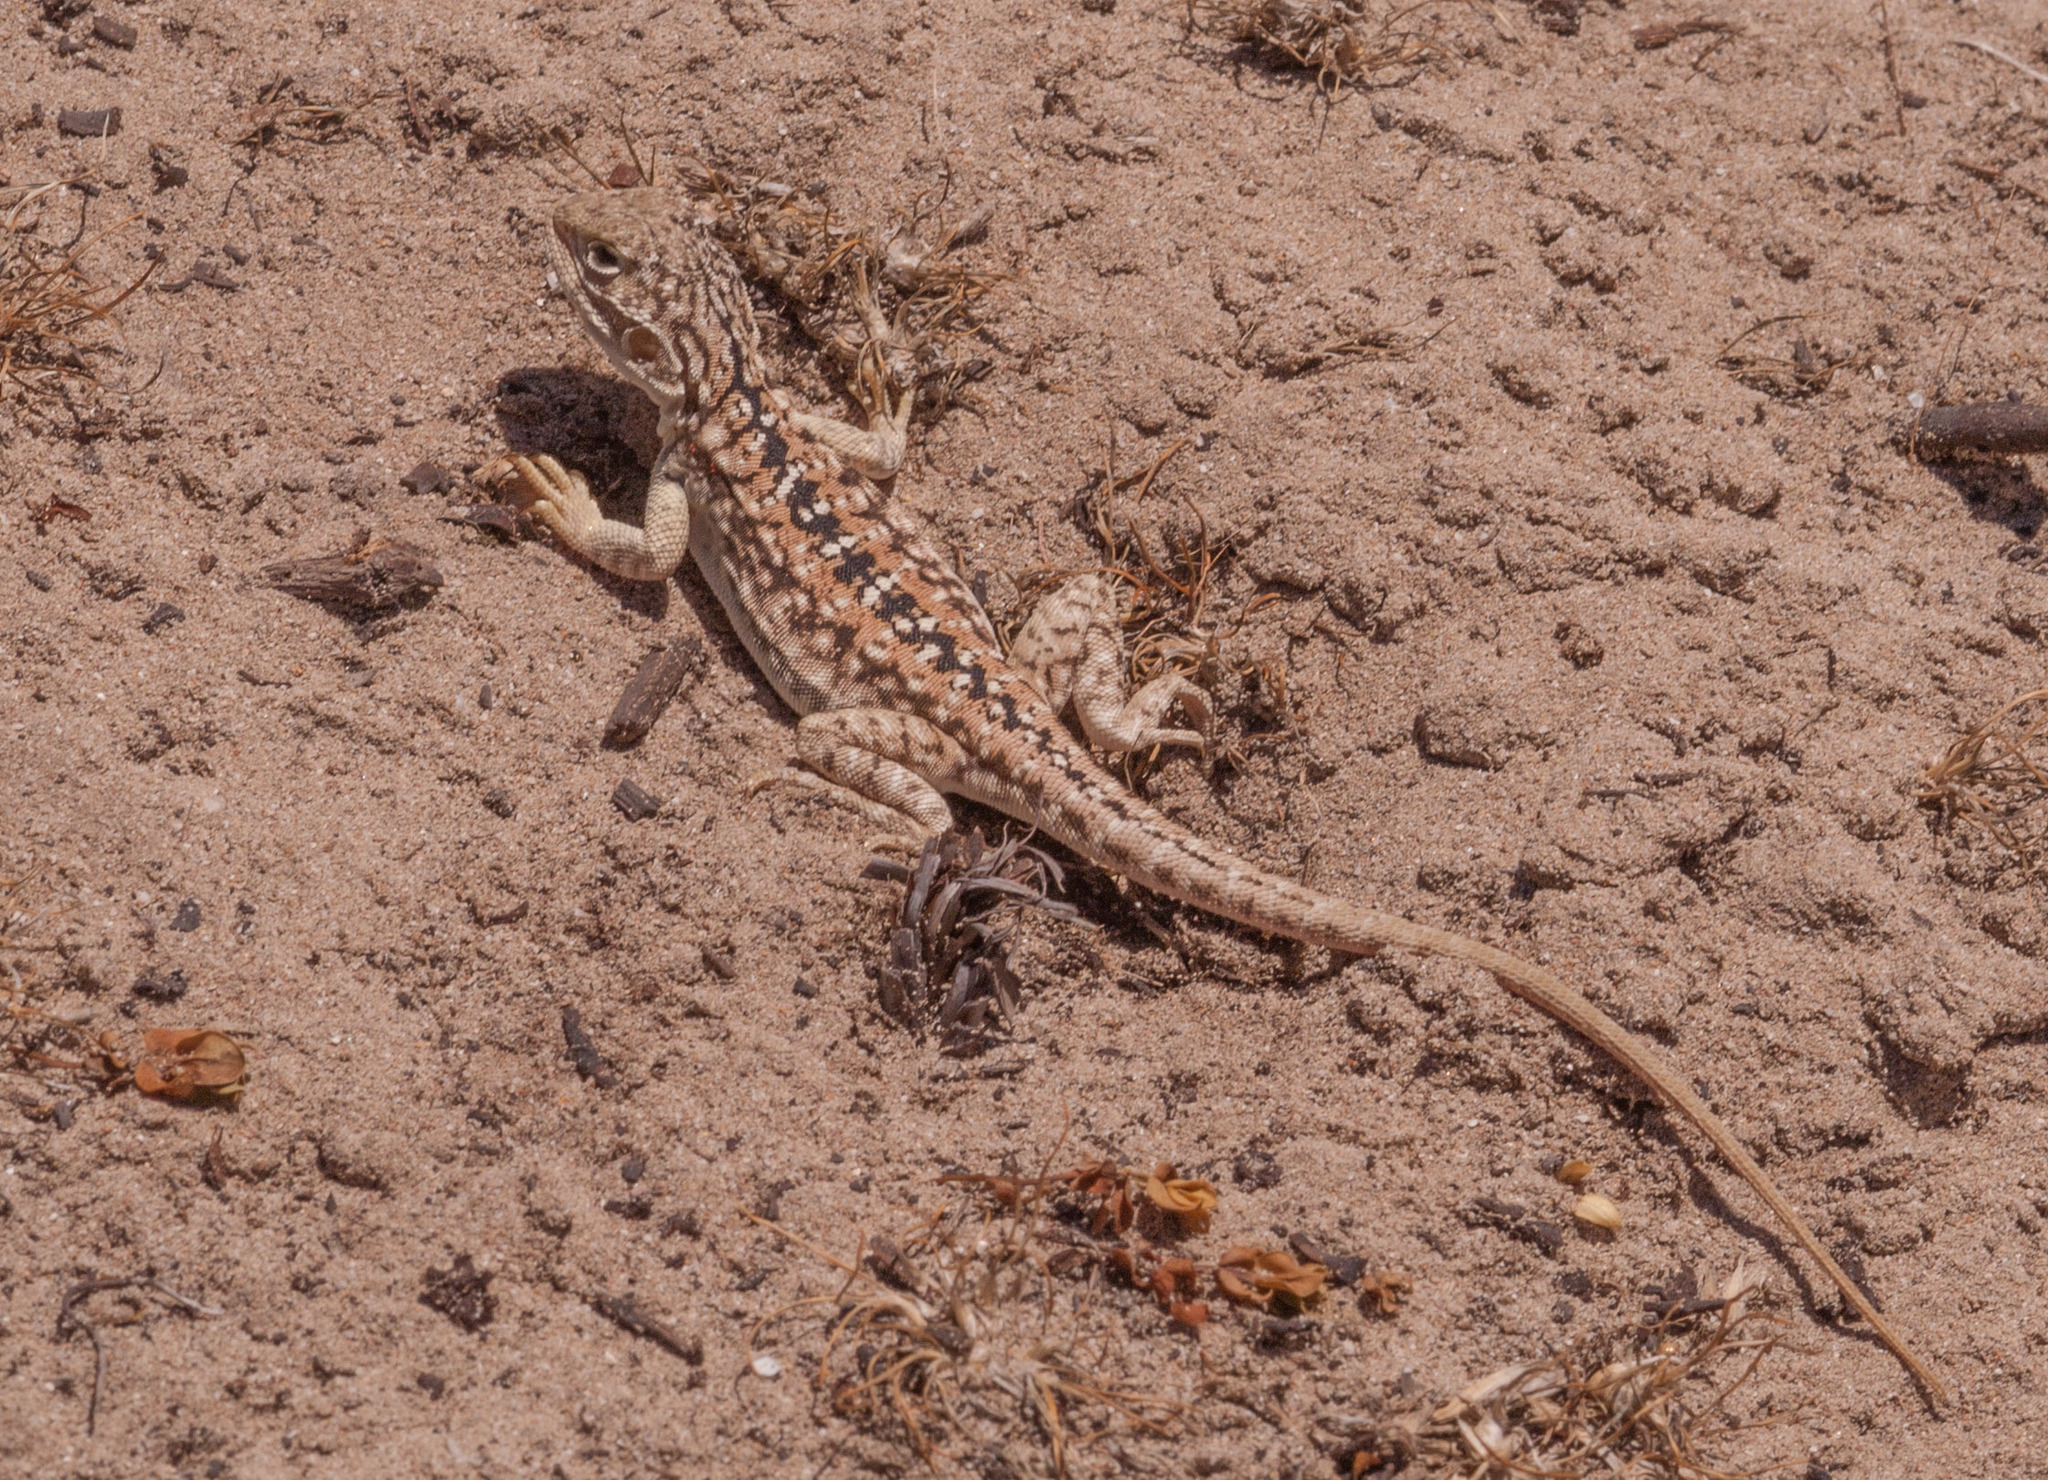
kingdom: Animalia
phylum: Chordata
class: Squamata
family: Agamidae
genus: Ctenophorus
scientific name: Ctenophorus pictus
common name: Painted dragon
